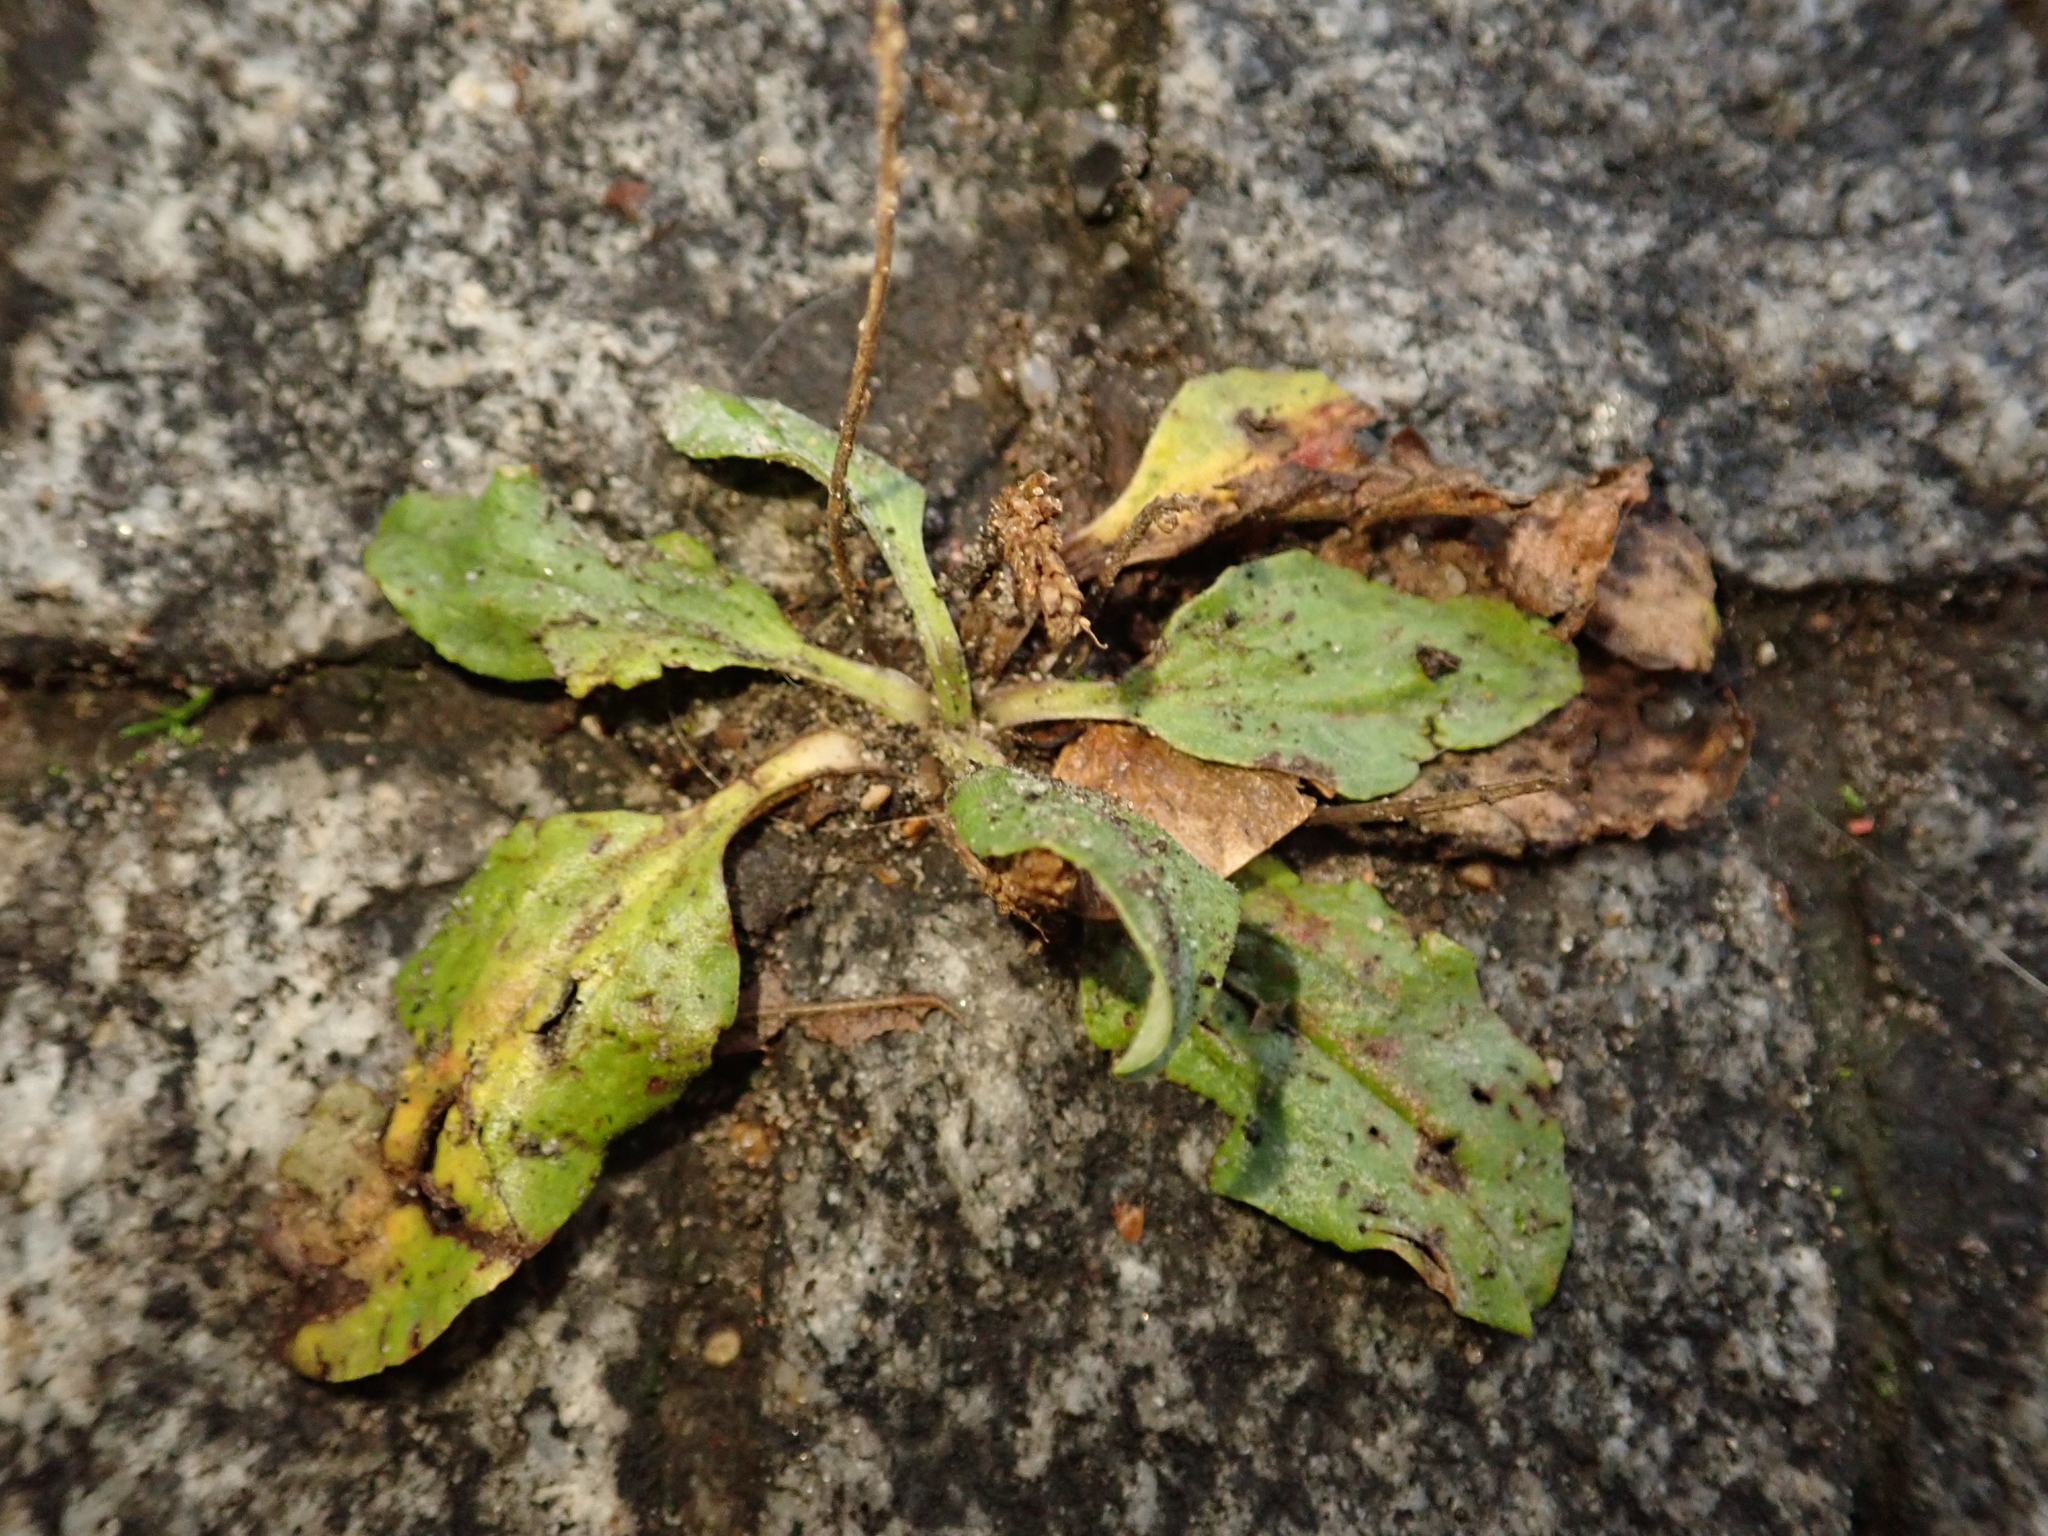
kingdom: Plantae
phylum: Tracheophyta
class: Magnoliopsida
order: Lamiales
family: Plantaginaceae
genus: Plantago
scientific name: Plantago major
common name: Common plantain
